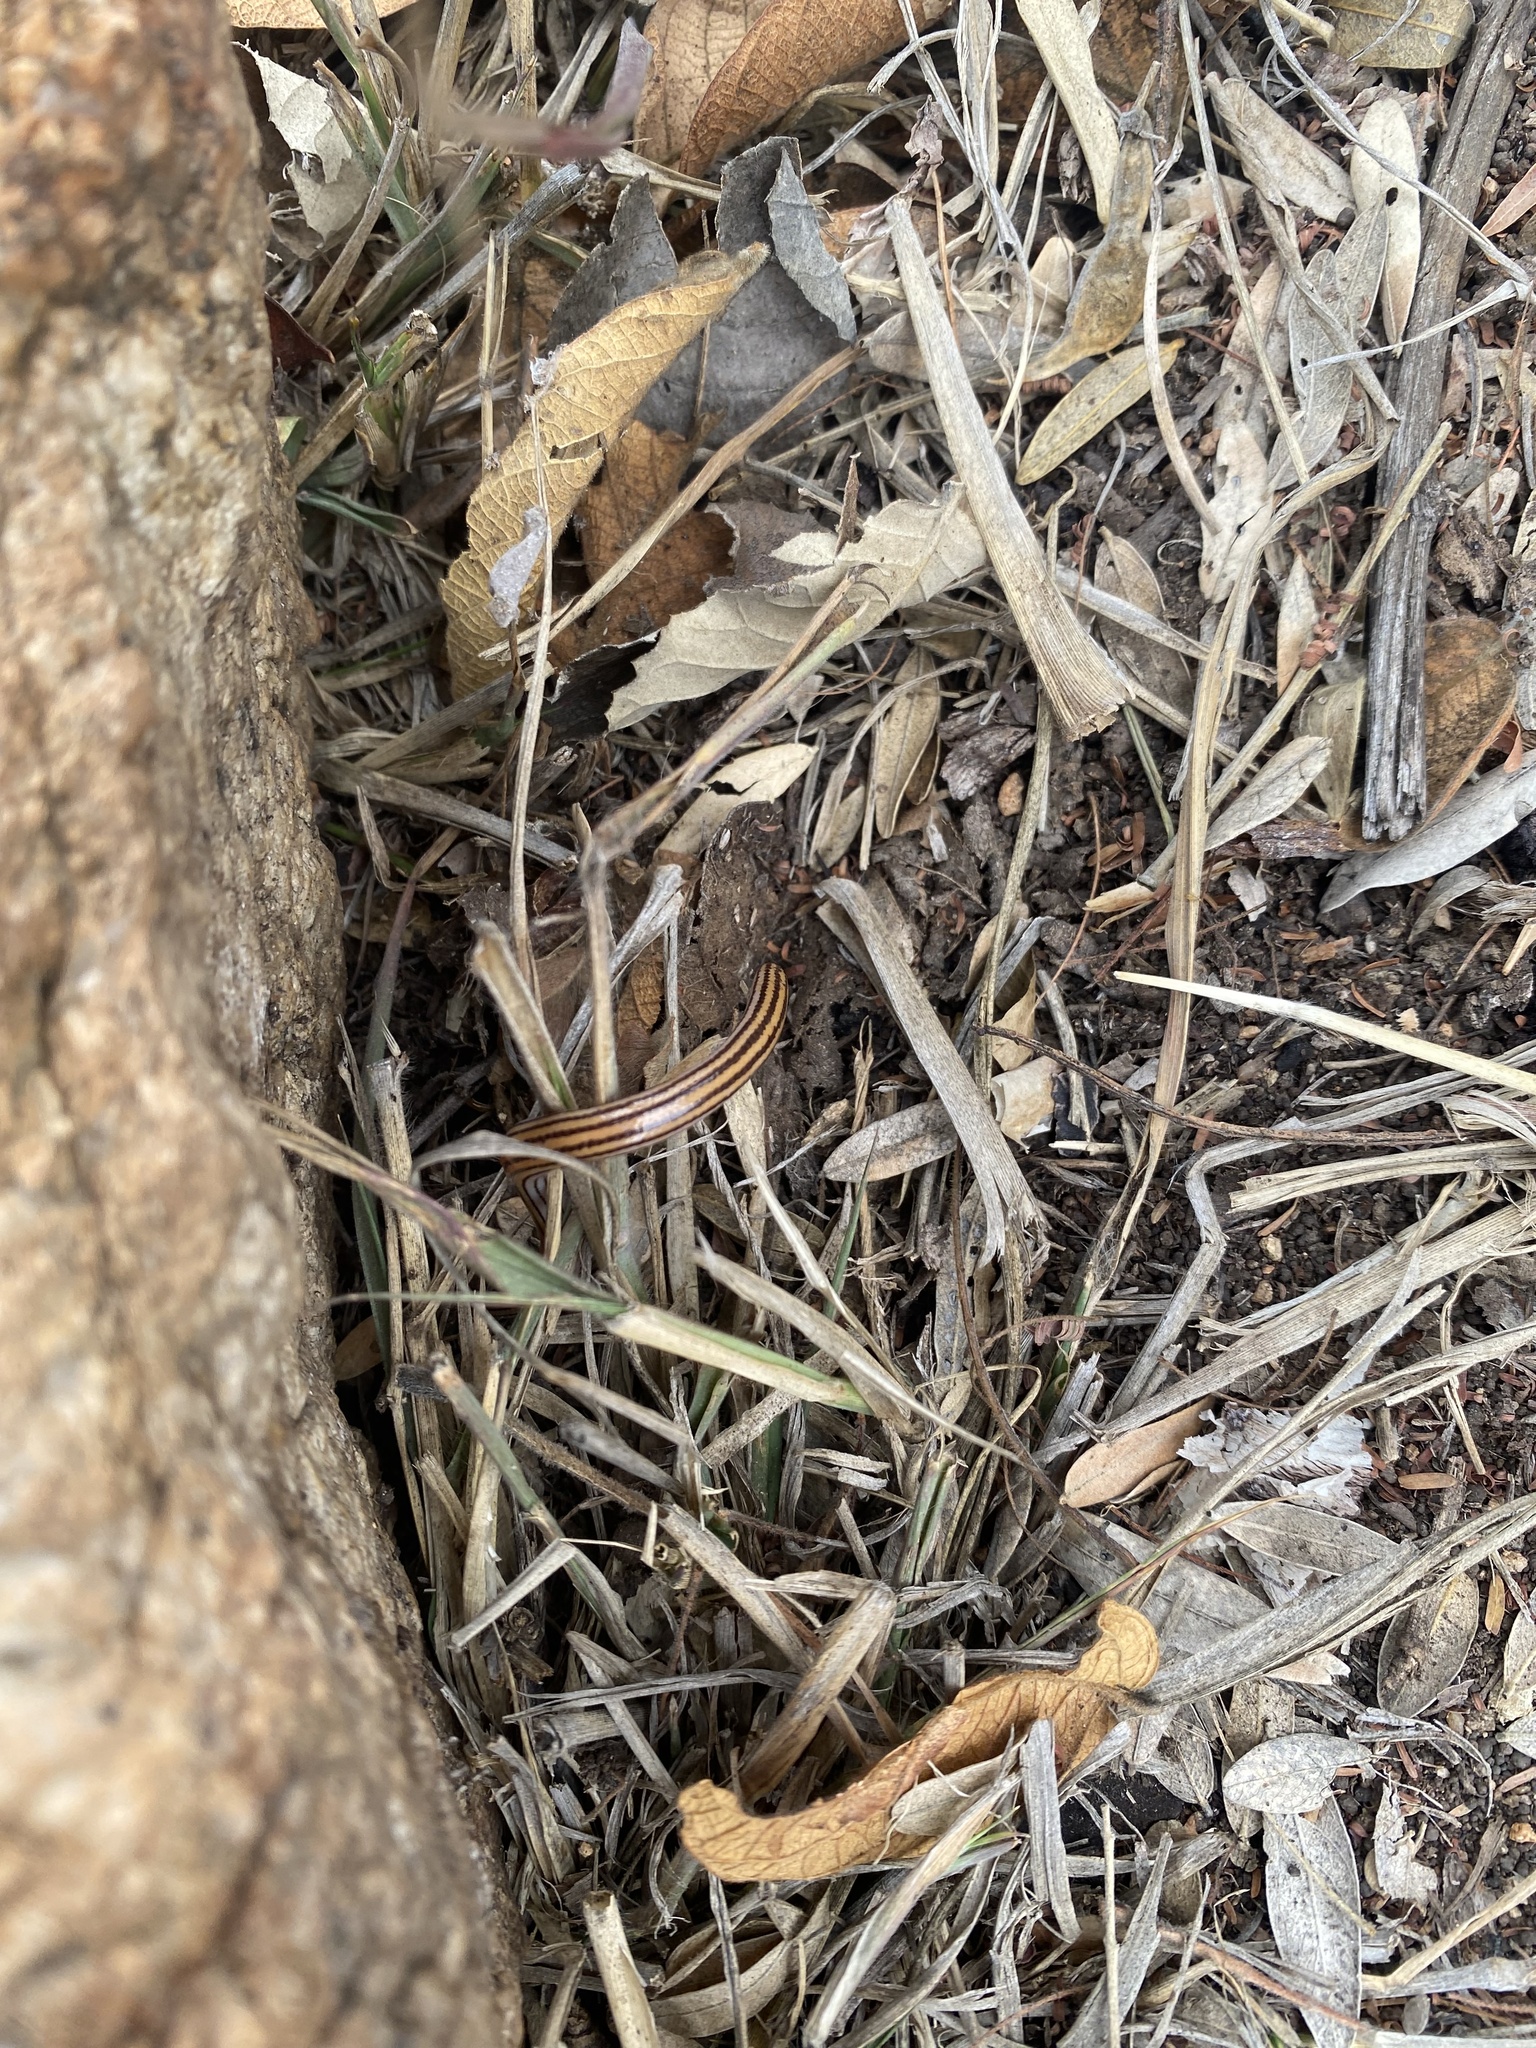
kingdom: Animalia
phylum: Chordata
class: Squamata
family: Scincidae
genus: Acontias
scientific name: Acontias rieppeli
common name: Woodbush legless skink
